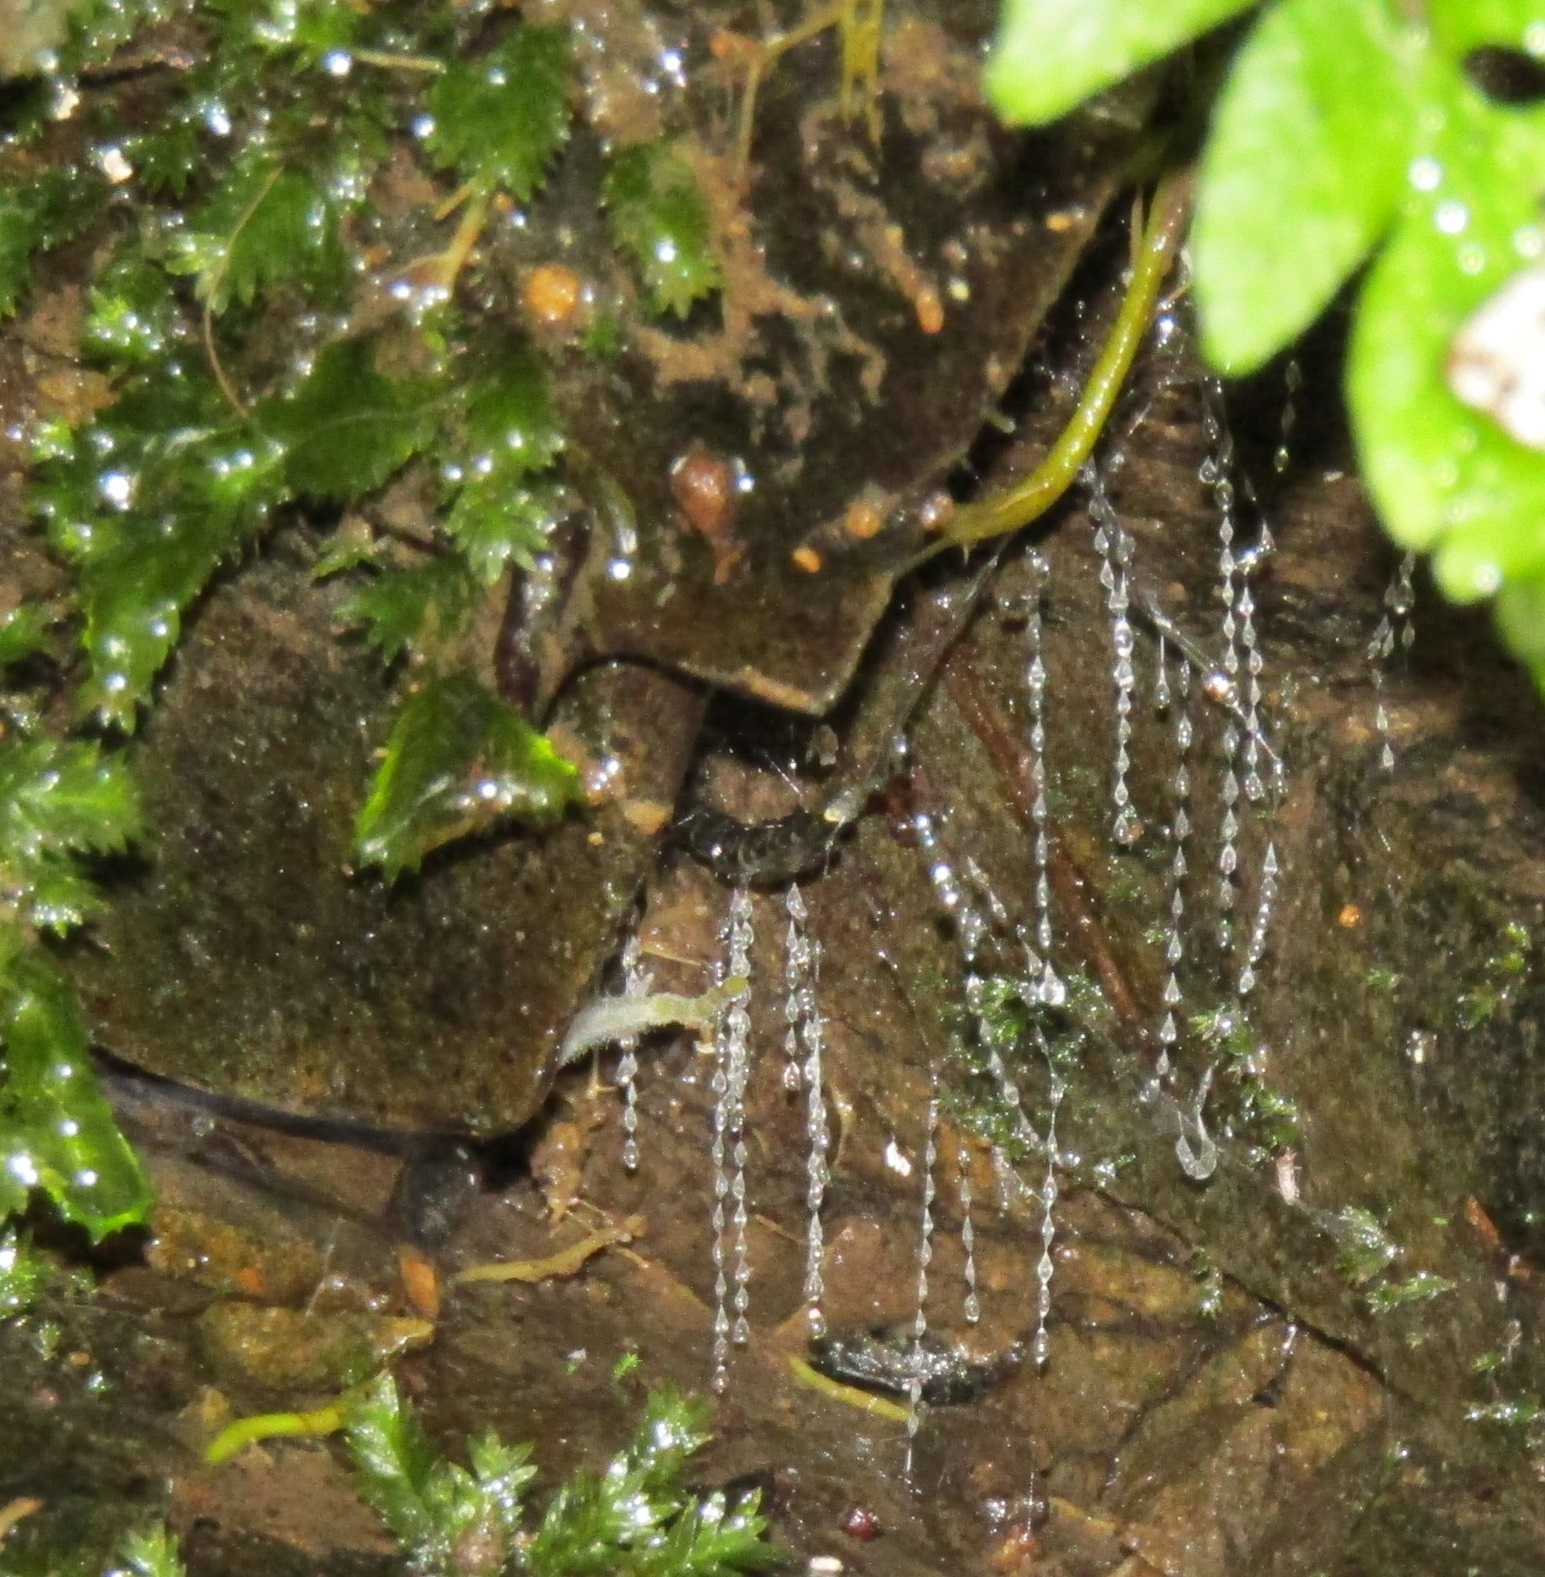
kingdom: Animalia
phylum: Arthropoda
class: Insecta
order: Diptera
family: Keroplatidae
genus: Arachnocampa
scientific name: Arachnocampa luminosa
